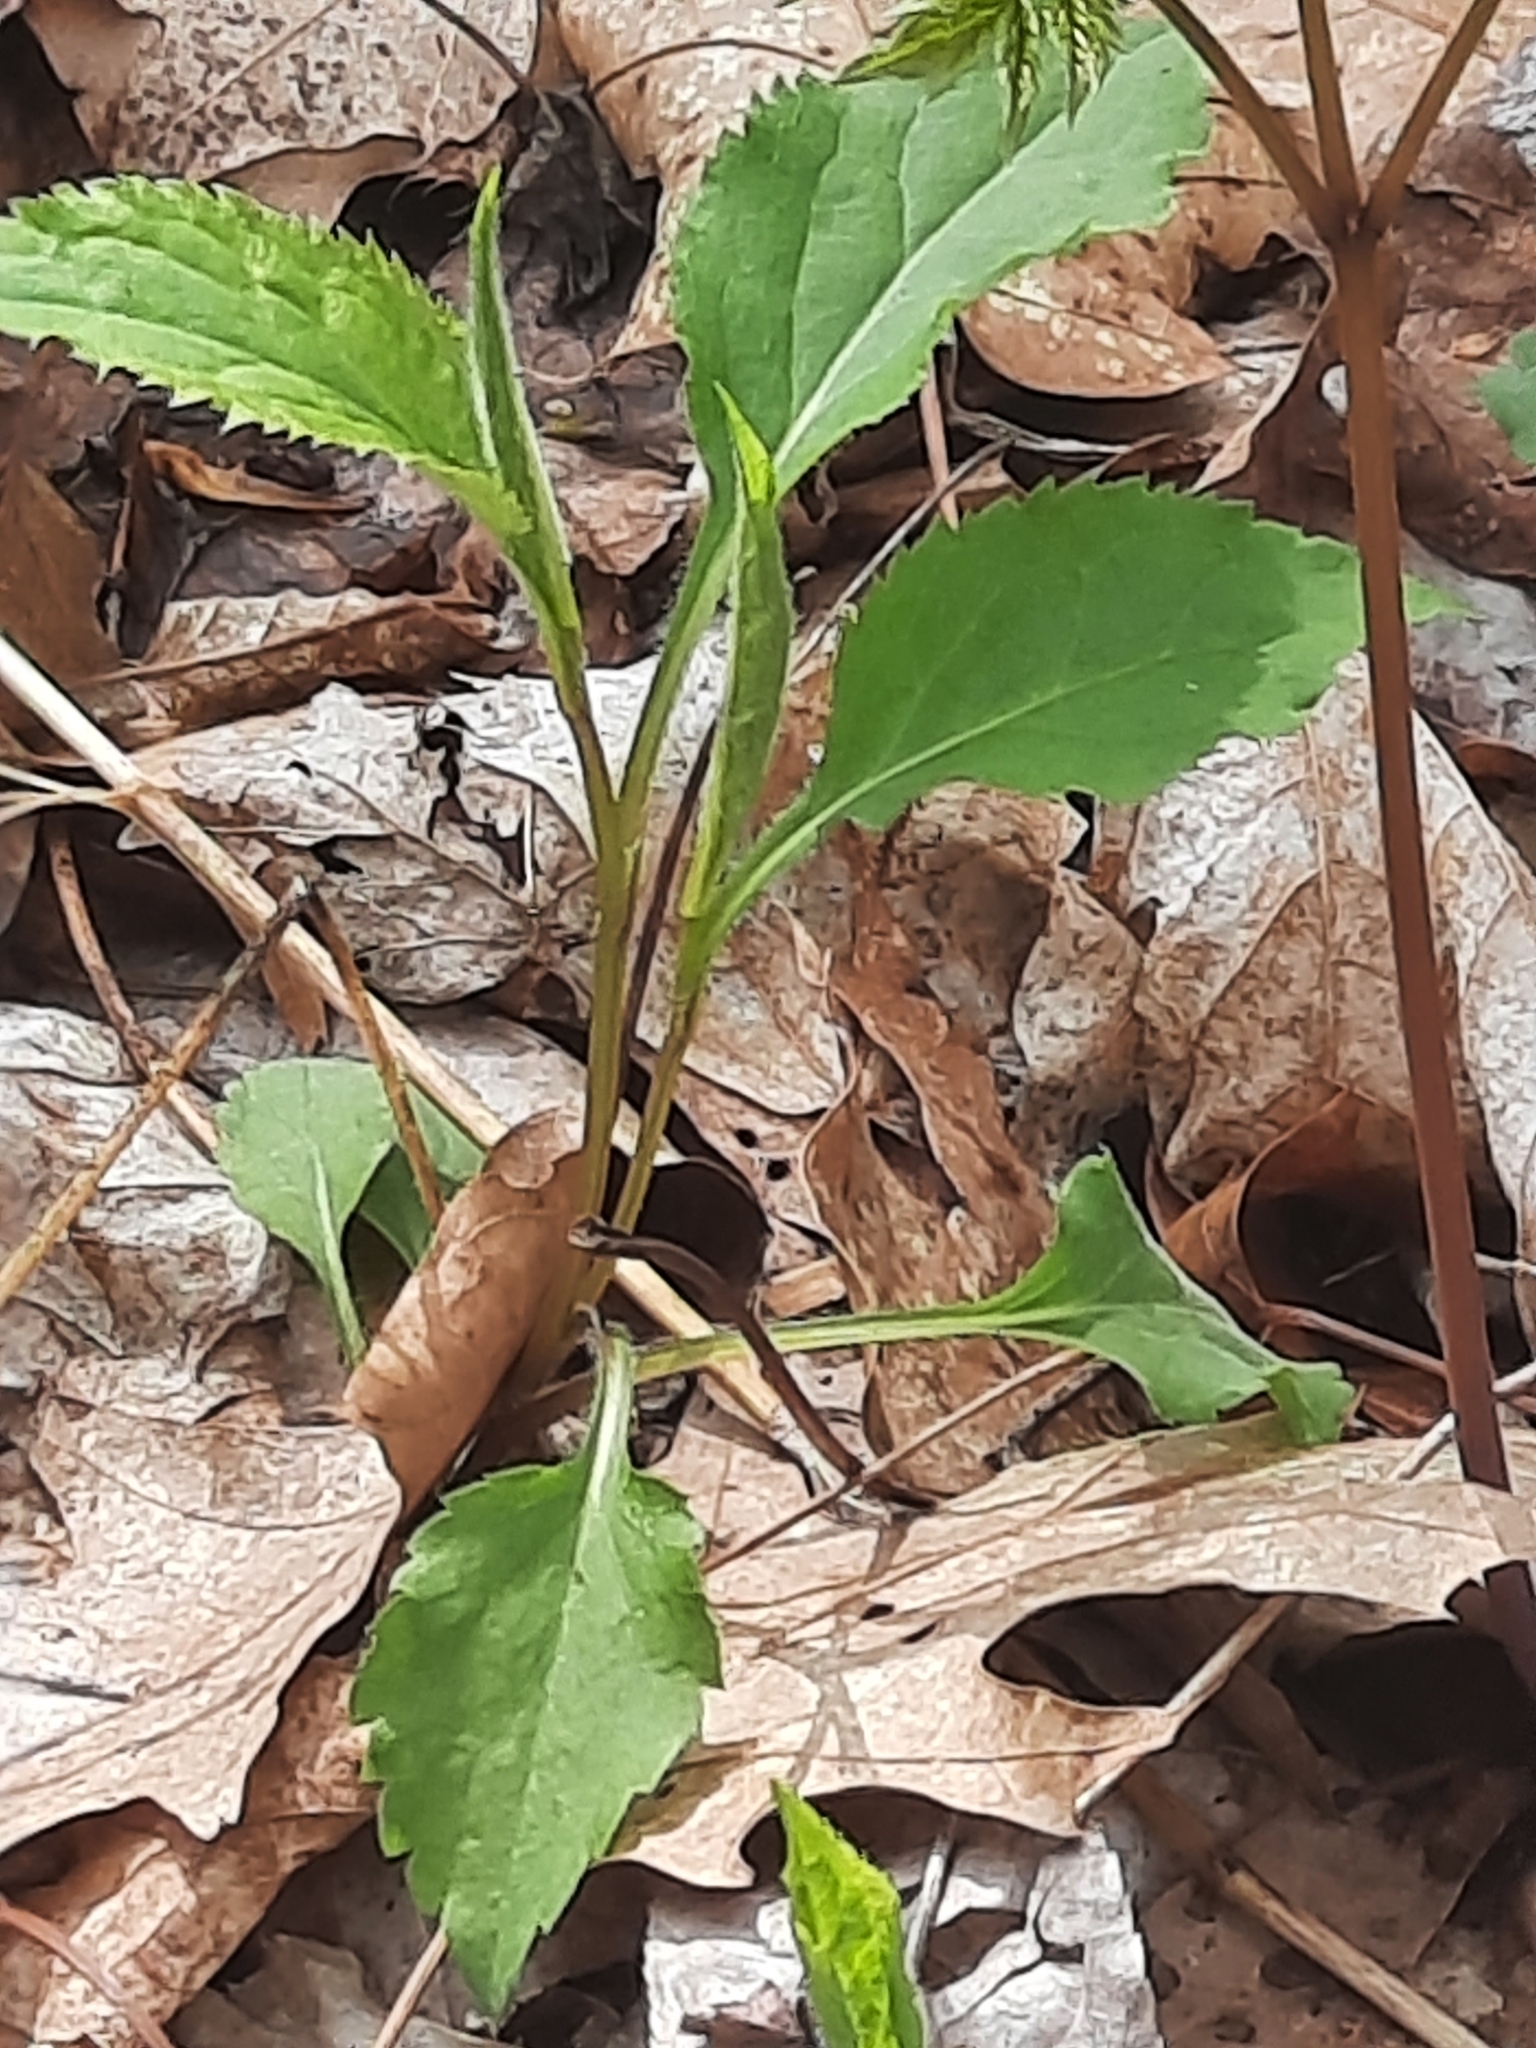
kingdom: Plantae
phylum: Tracheophyta
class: Magnoliopsida
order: Asterales
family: Asteraceae
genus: Solidago
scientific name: Solidago flexicaulis
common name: Zig-zag goldenrod
